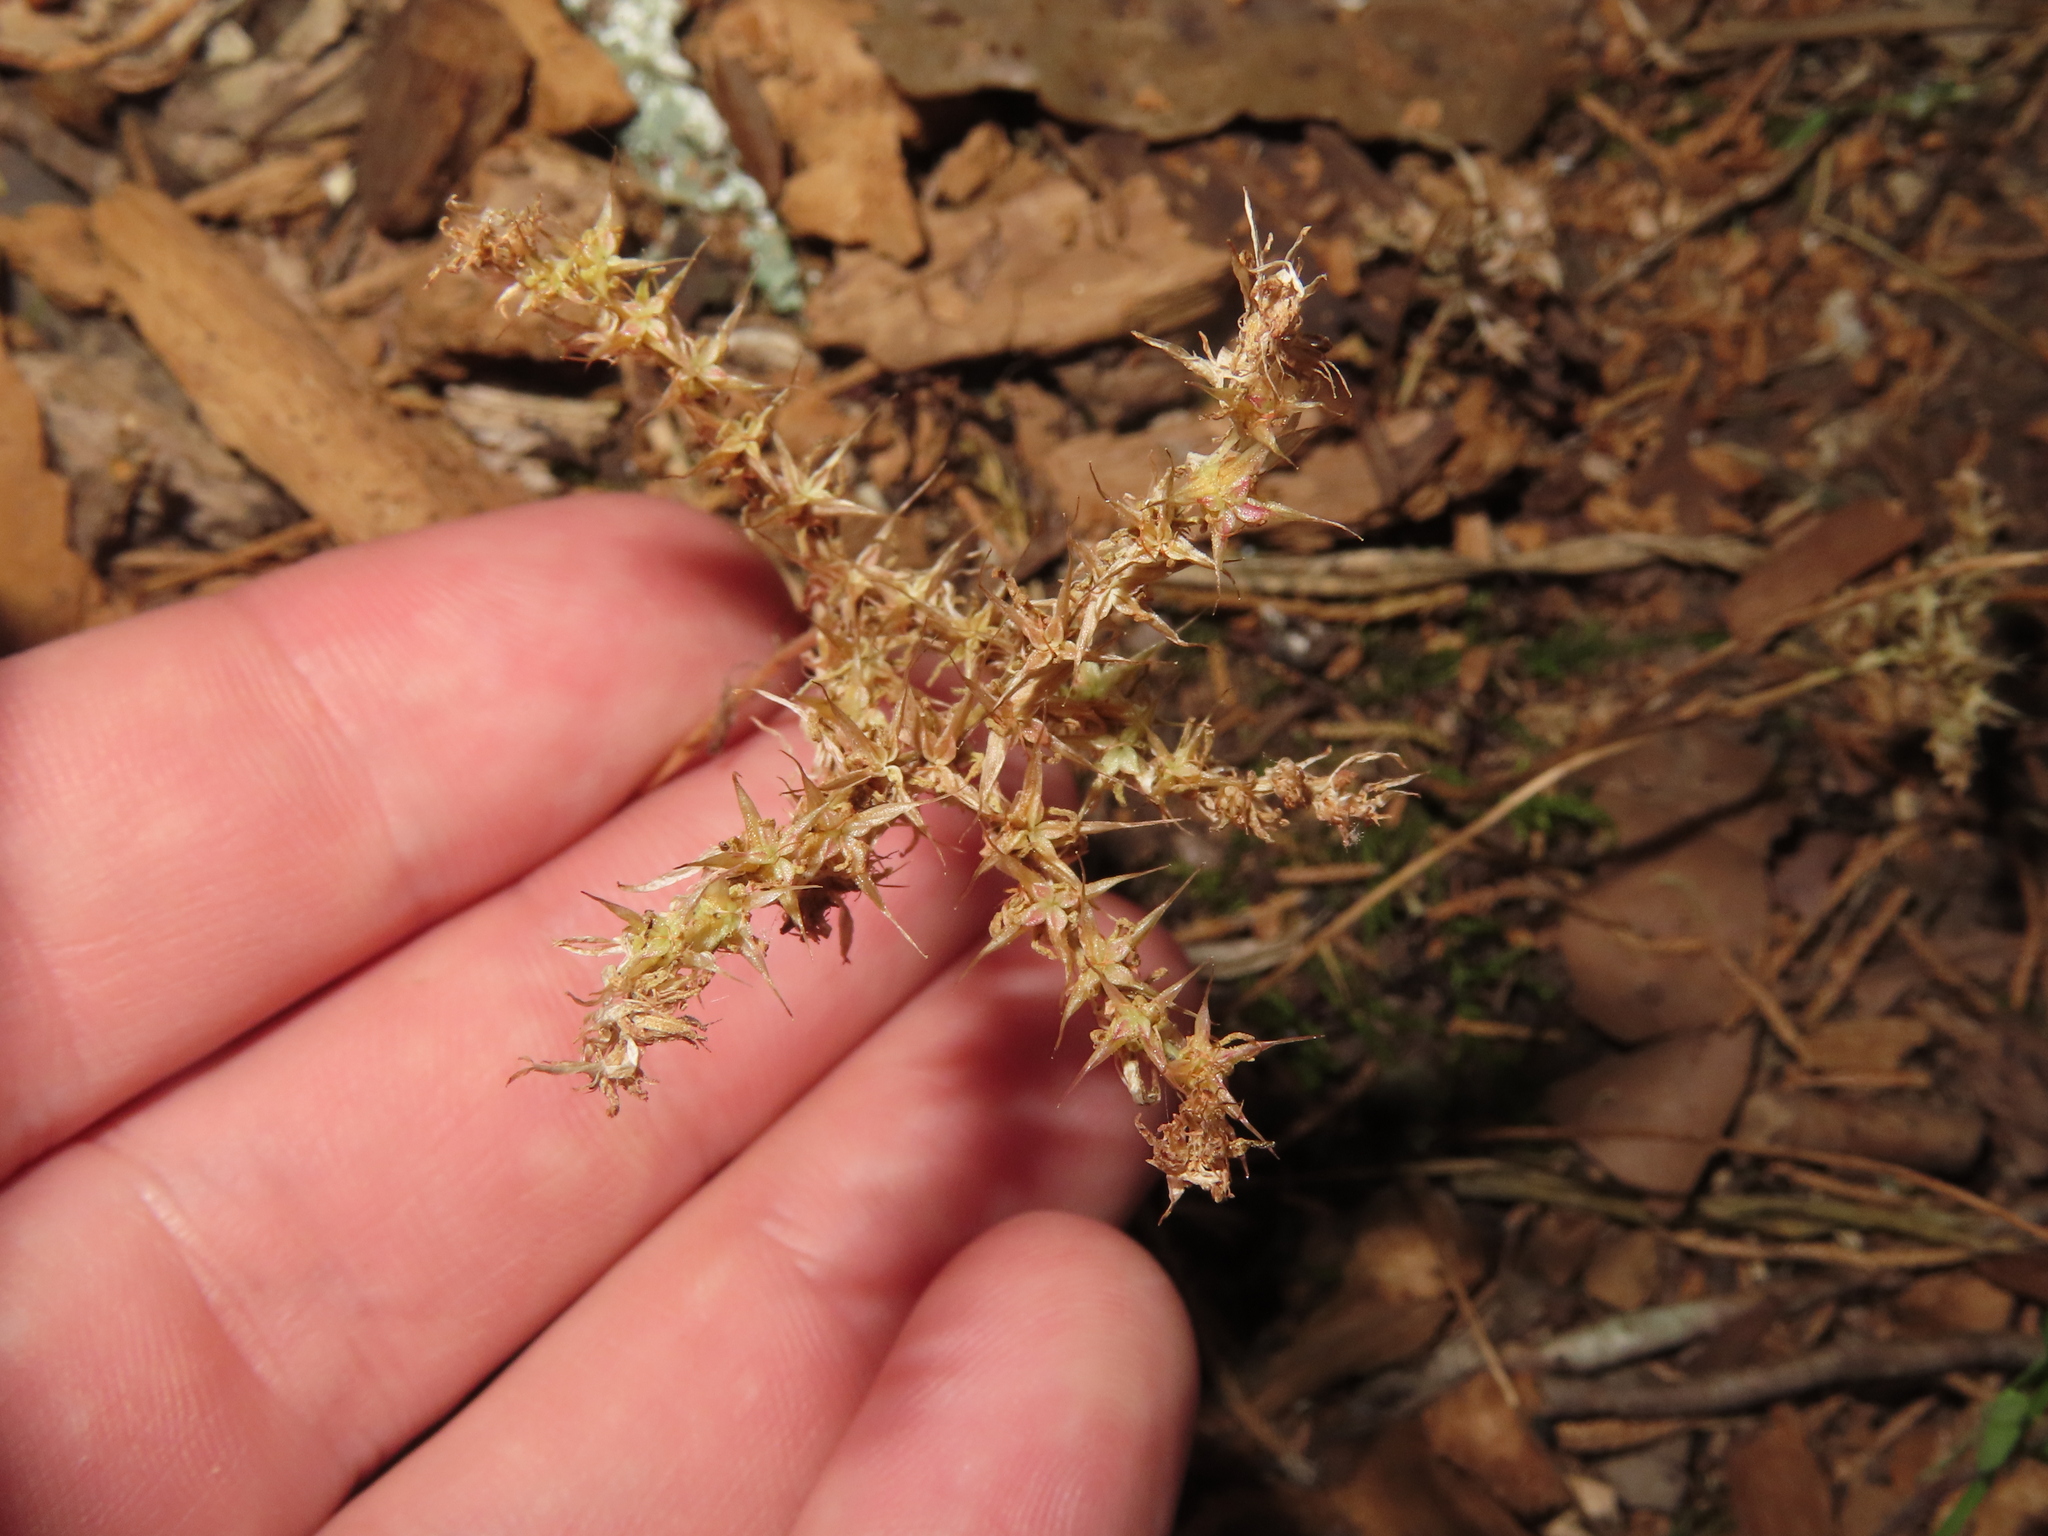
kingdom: Plantae
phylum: Tracheophyta
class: Magnoliopsida
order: Saxifragales
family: Crassulaceae
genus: Sedum
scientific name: Sedum pulchellum
